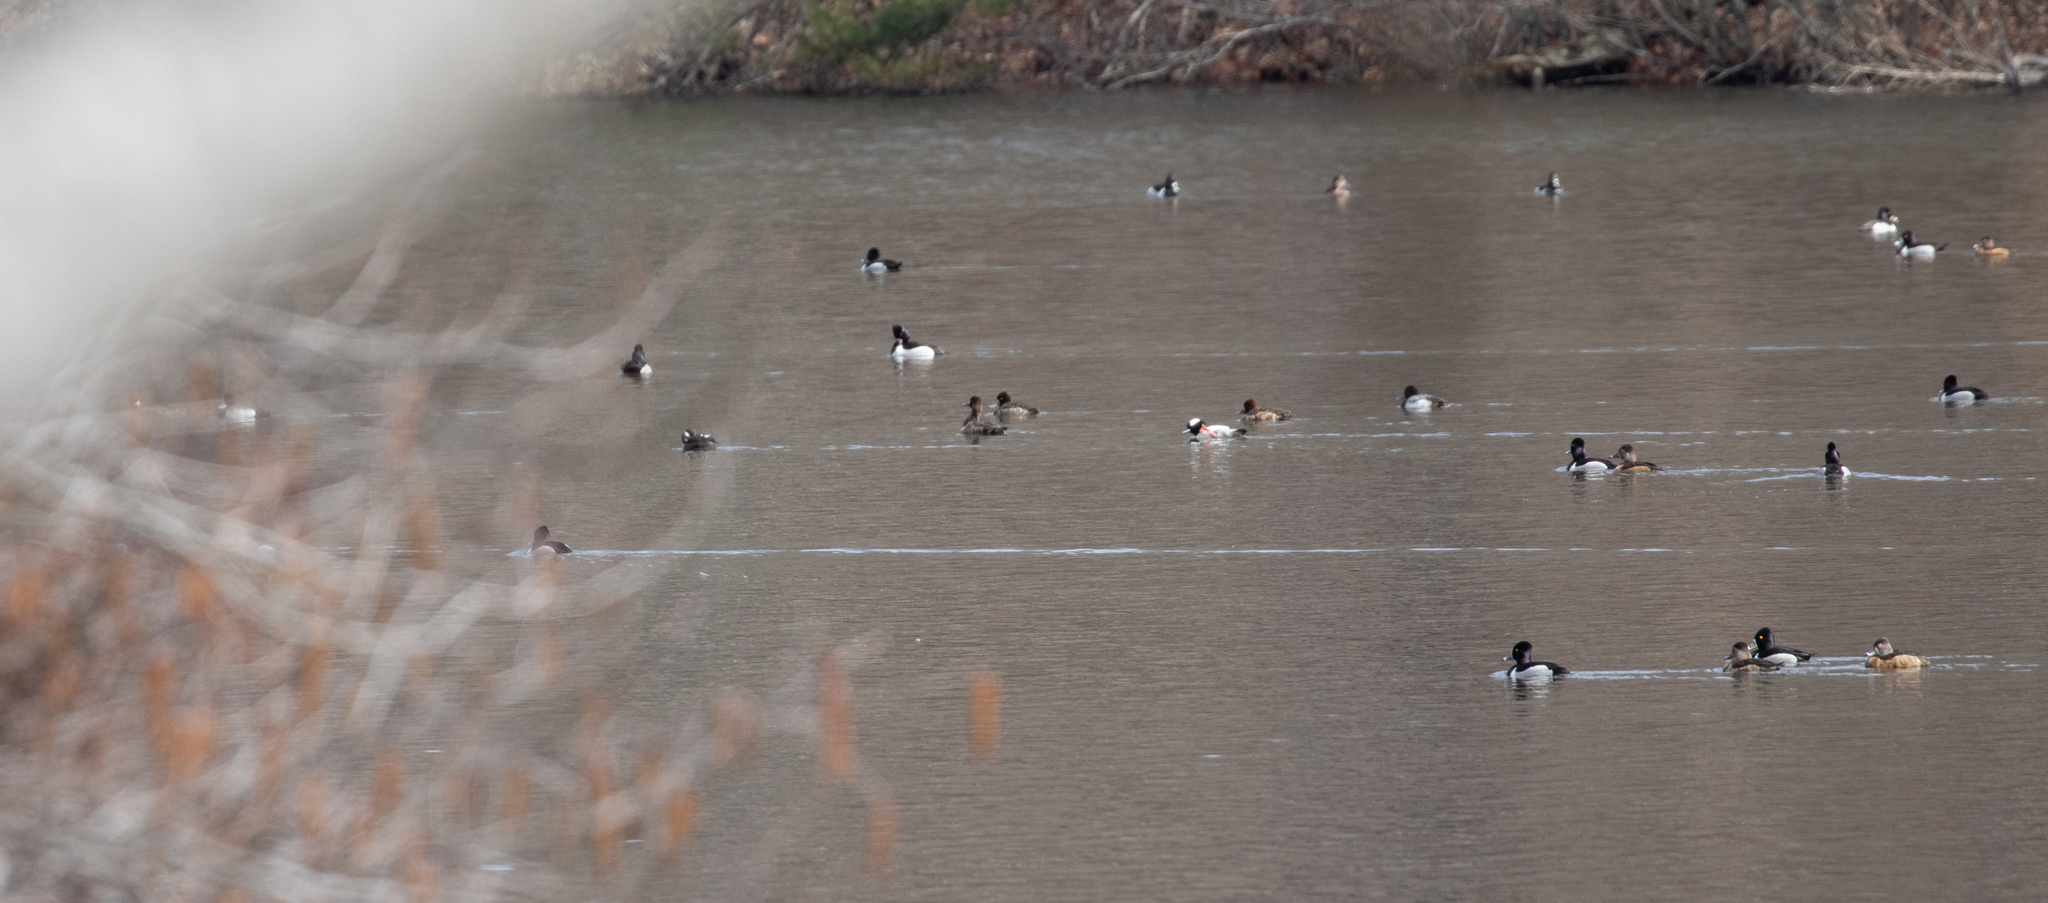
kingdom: Animalia
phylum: Chordata
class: Aves
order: Anseriformes
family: Anatidae
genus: Aythya
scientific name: Aythya collaris
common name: Ring-necked duck
